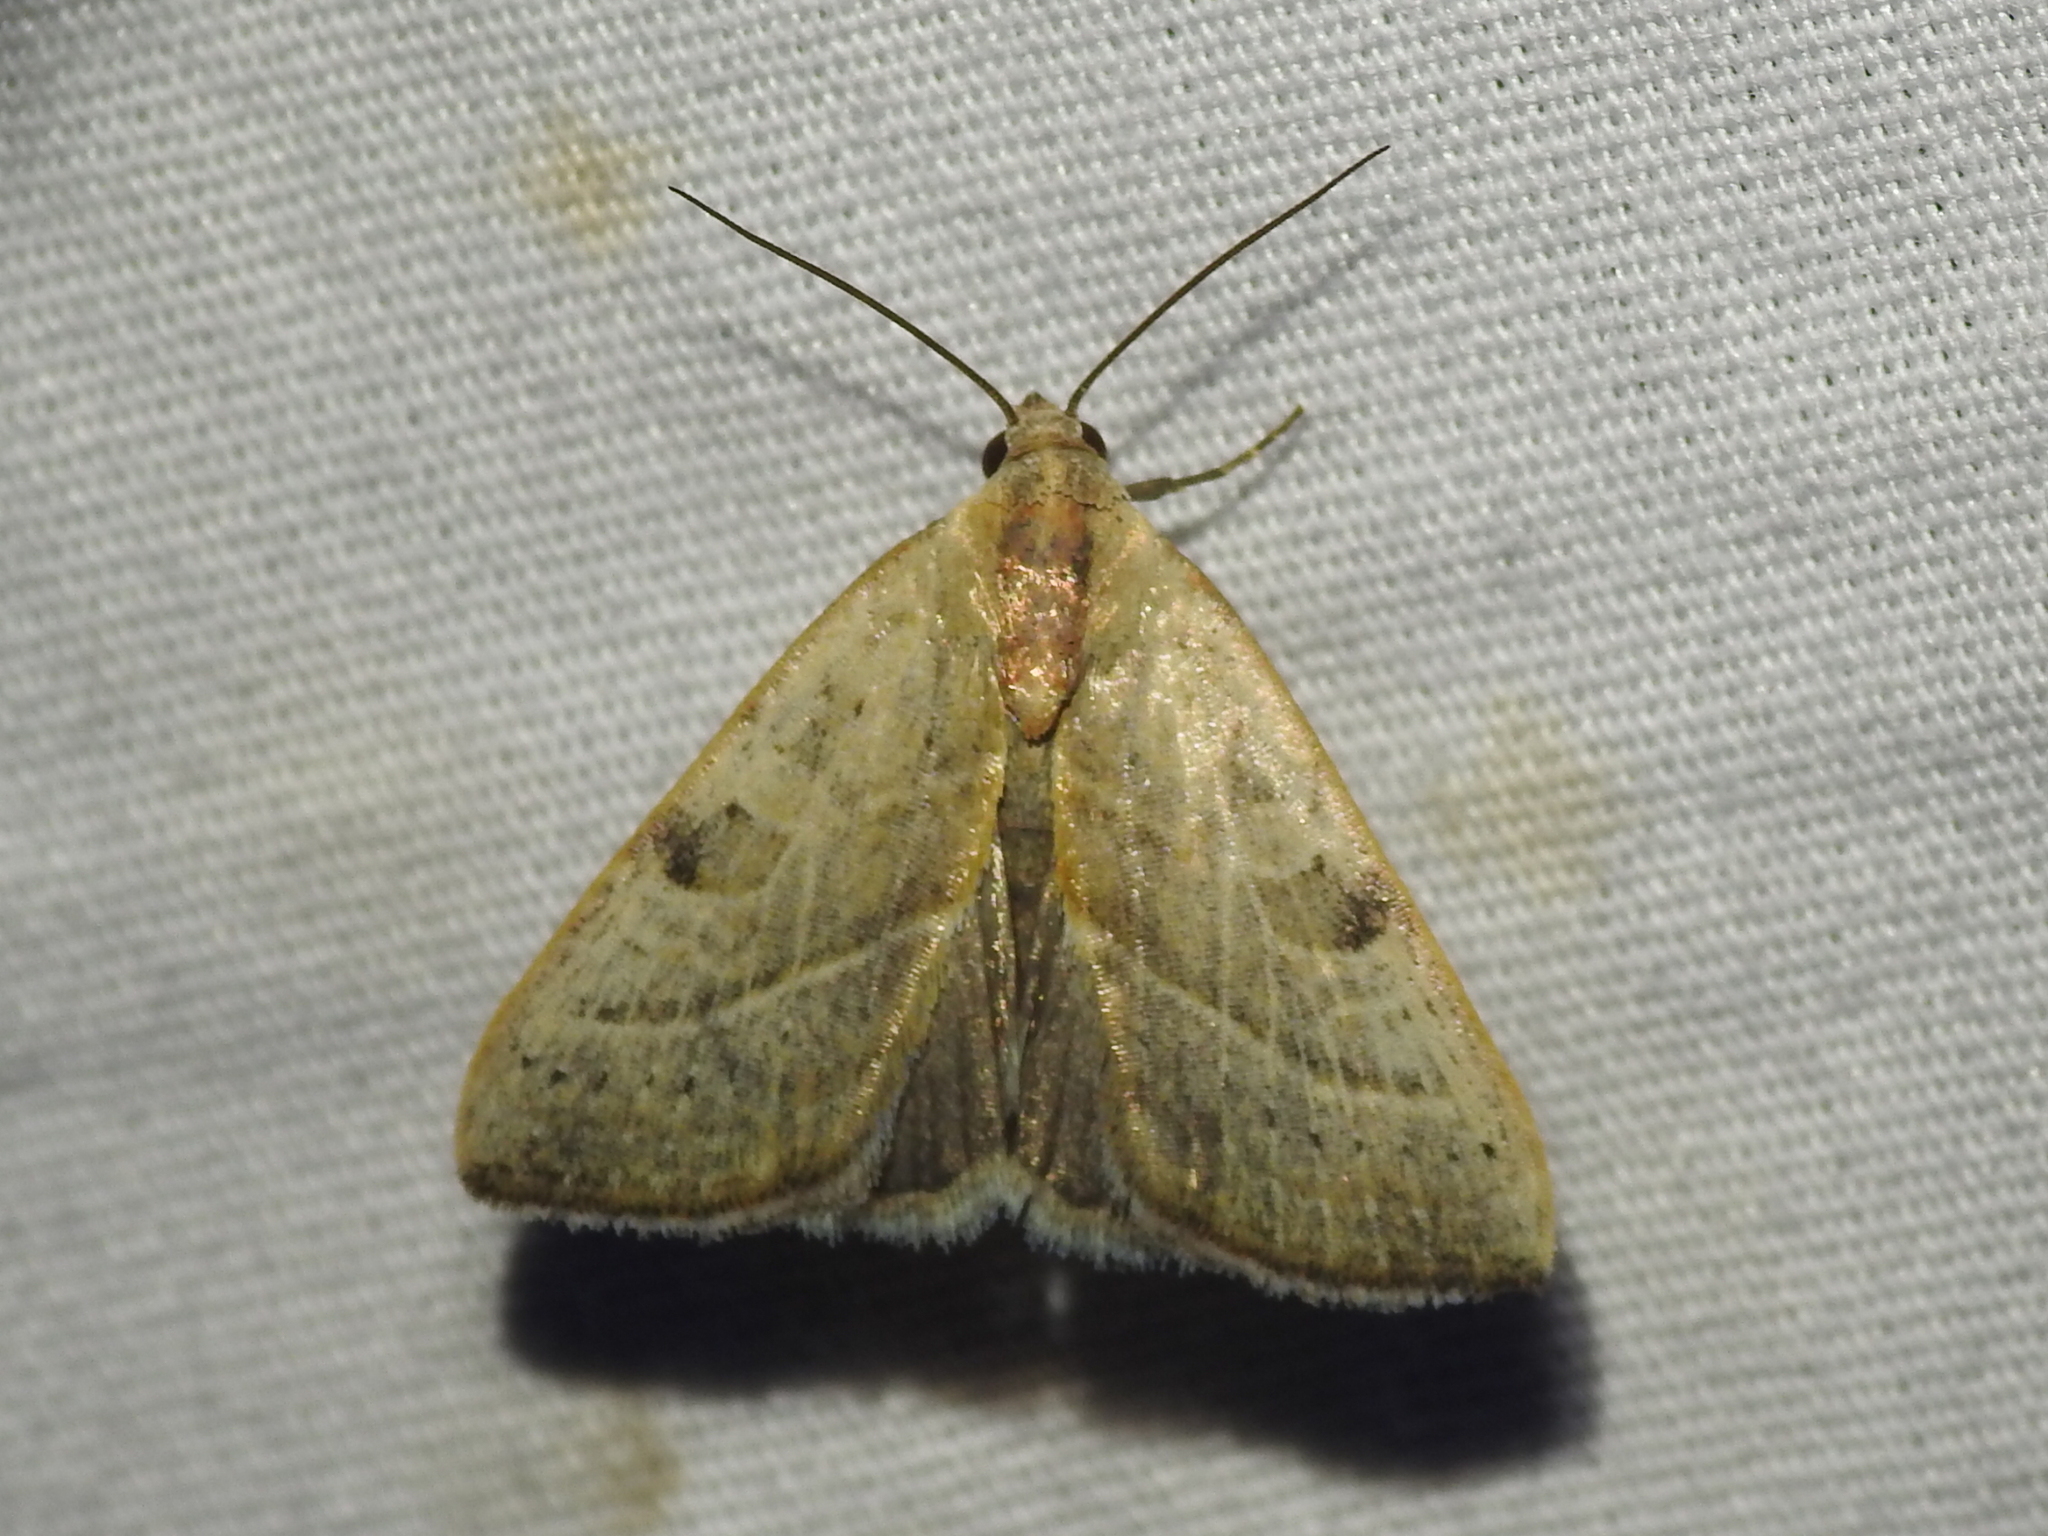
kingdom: Animalia
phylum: Arthropoda
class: Insecta
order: Lepidoptera
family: Noctuidae
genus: Galgula
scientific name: Galgula partita
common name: Wedgeling
